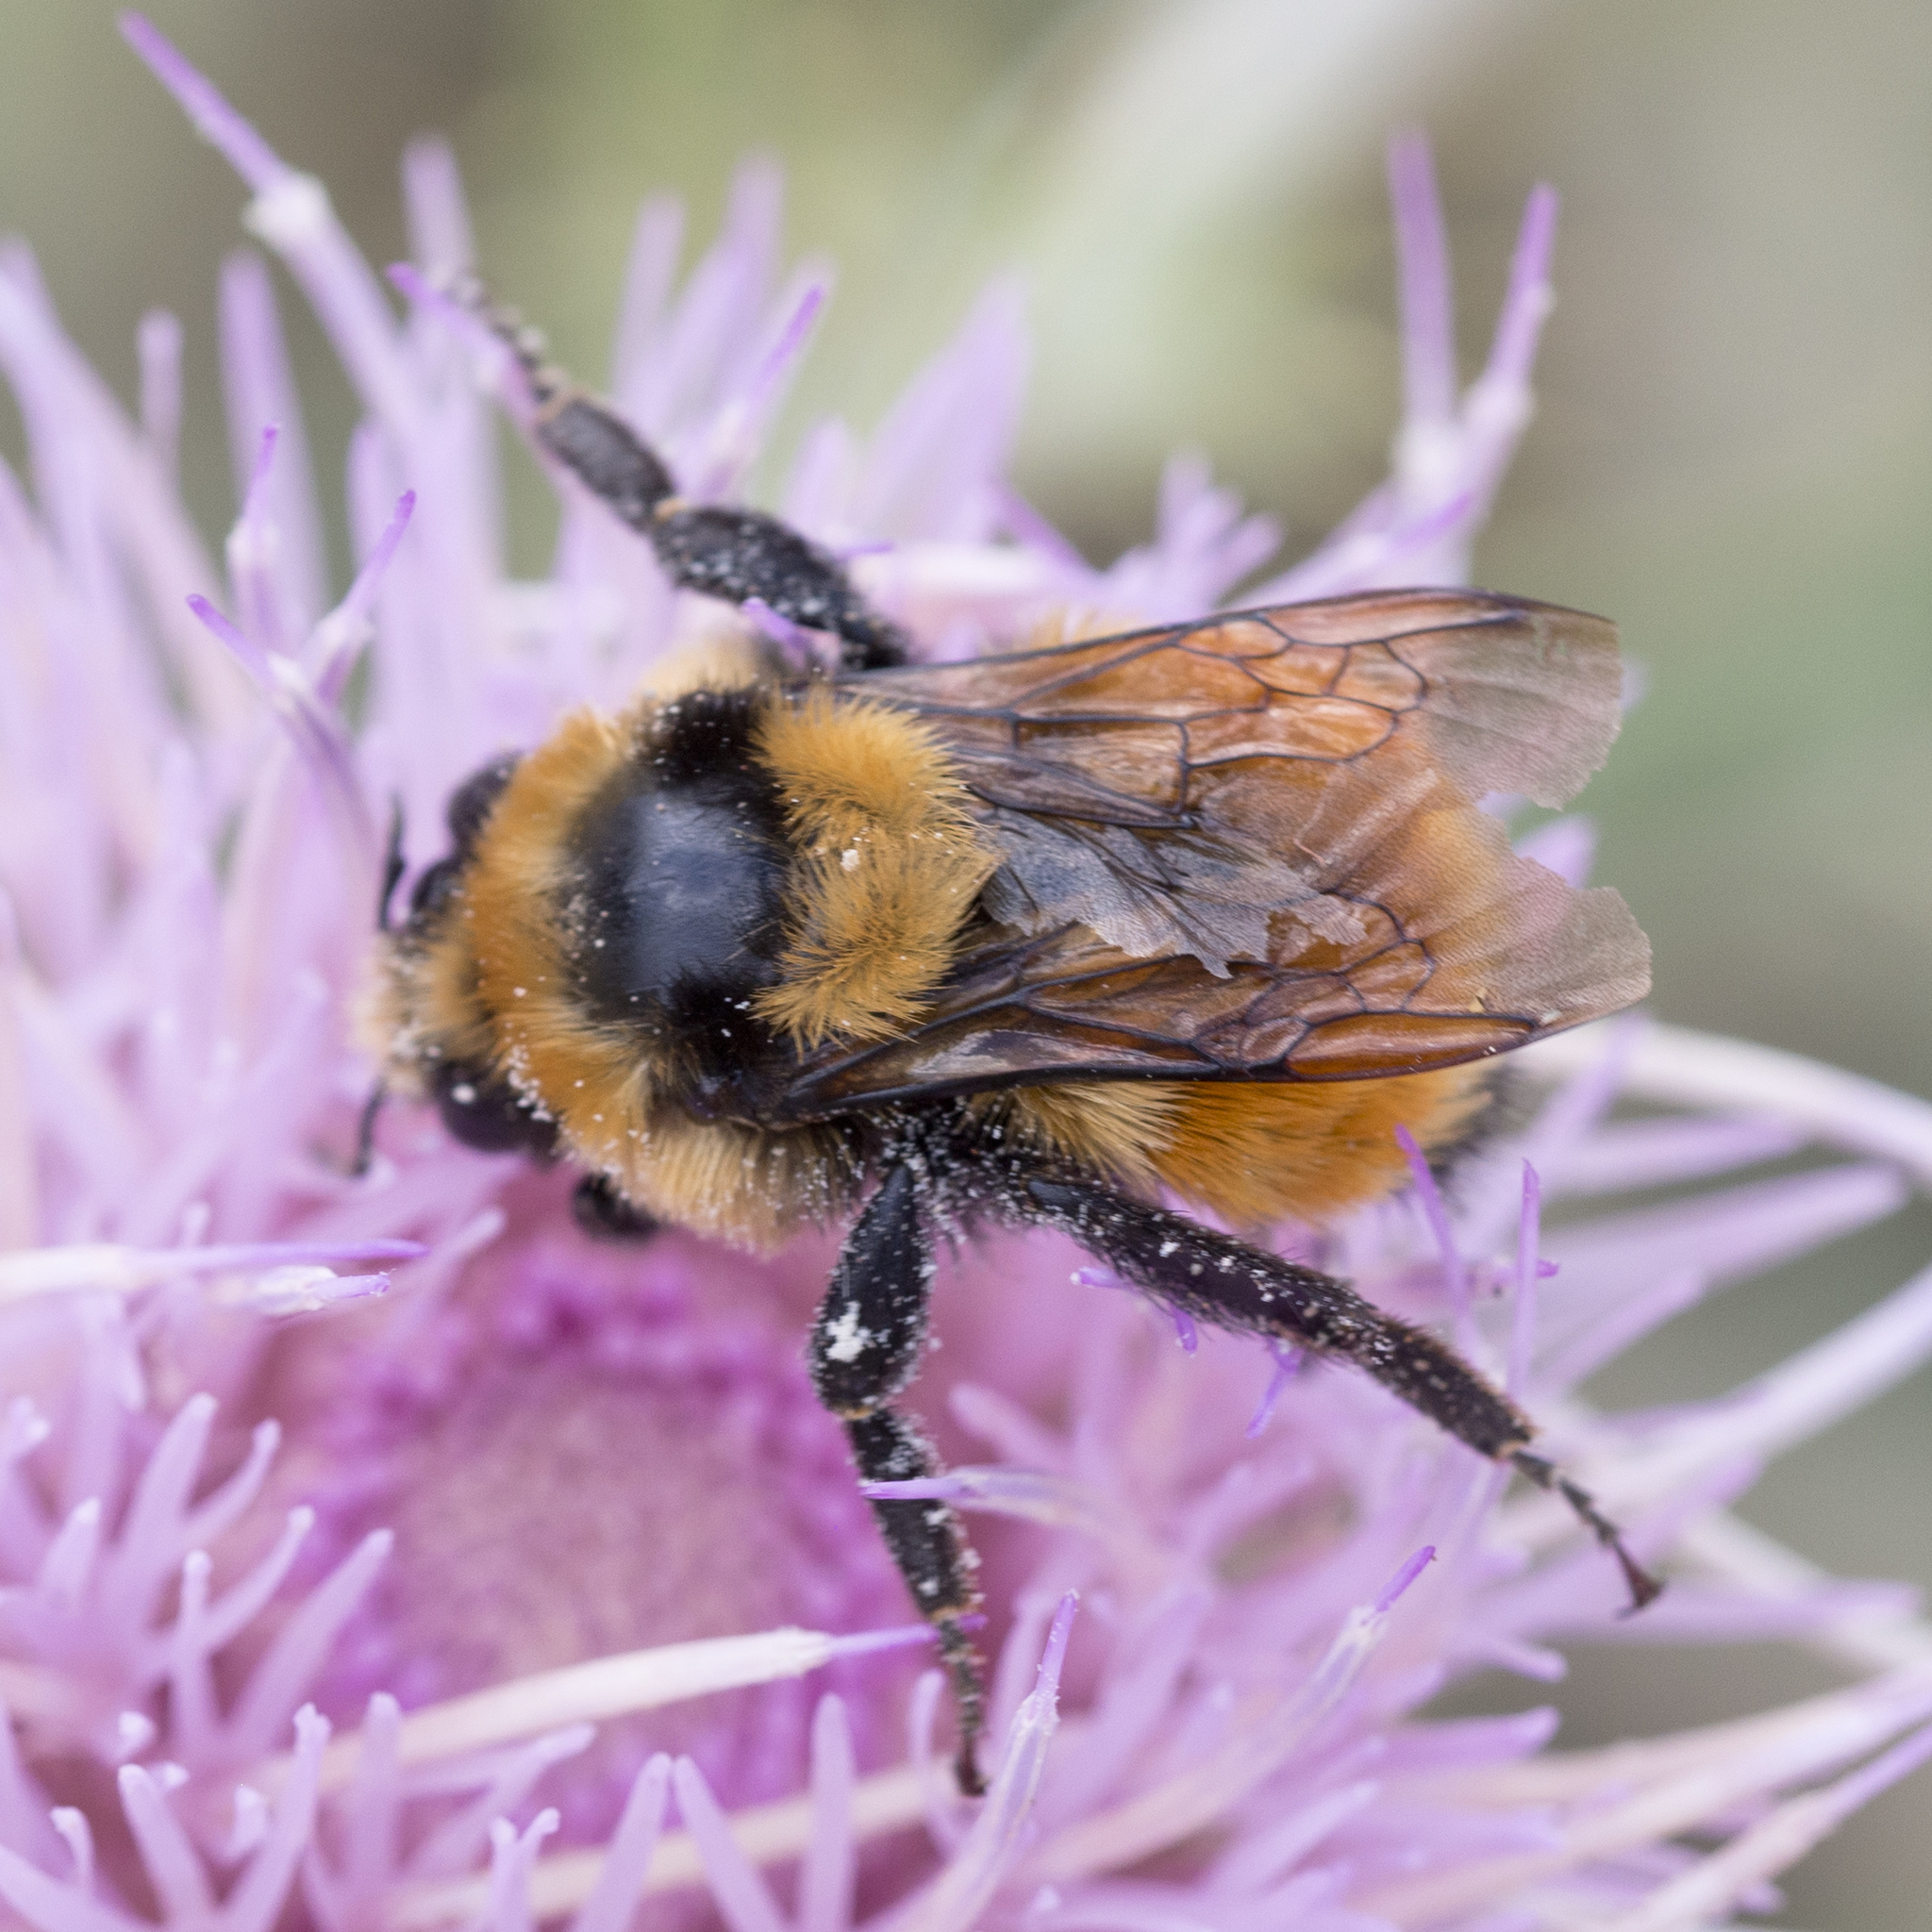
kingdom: Animalia
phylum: Arthropoda
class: Insecta
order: Hymenoptera
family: Apidae
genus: Bombus
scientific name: Bombus huntii
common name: Hunt bumble bee
